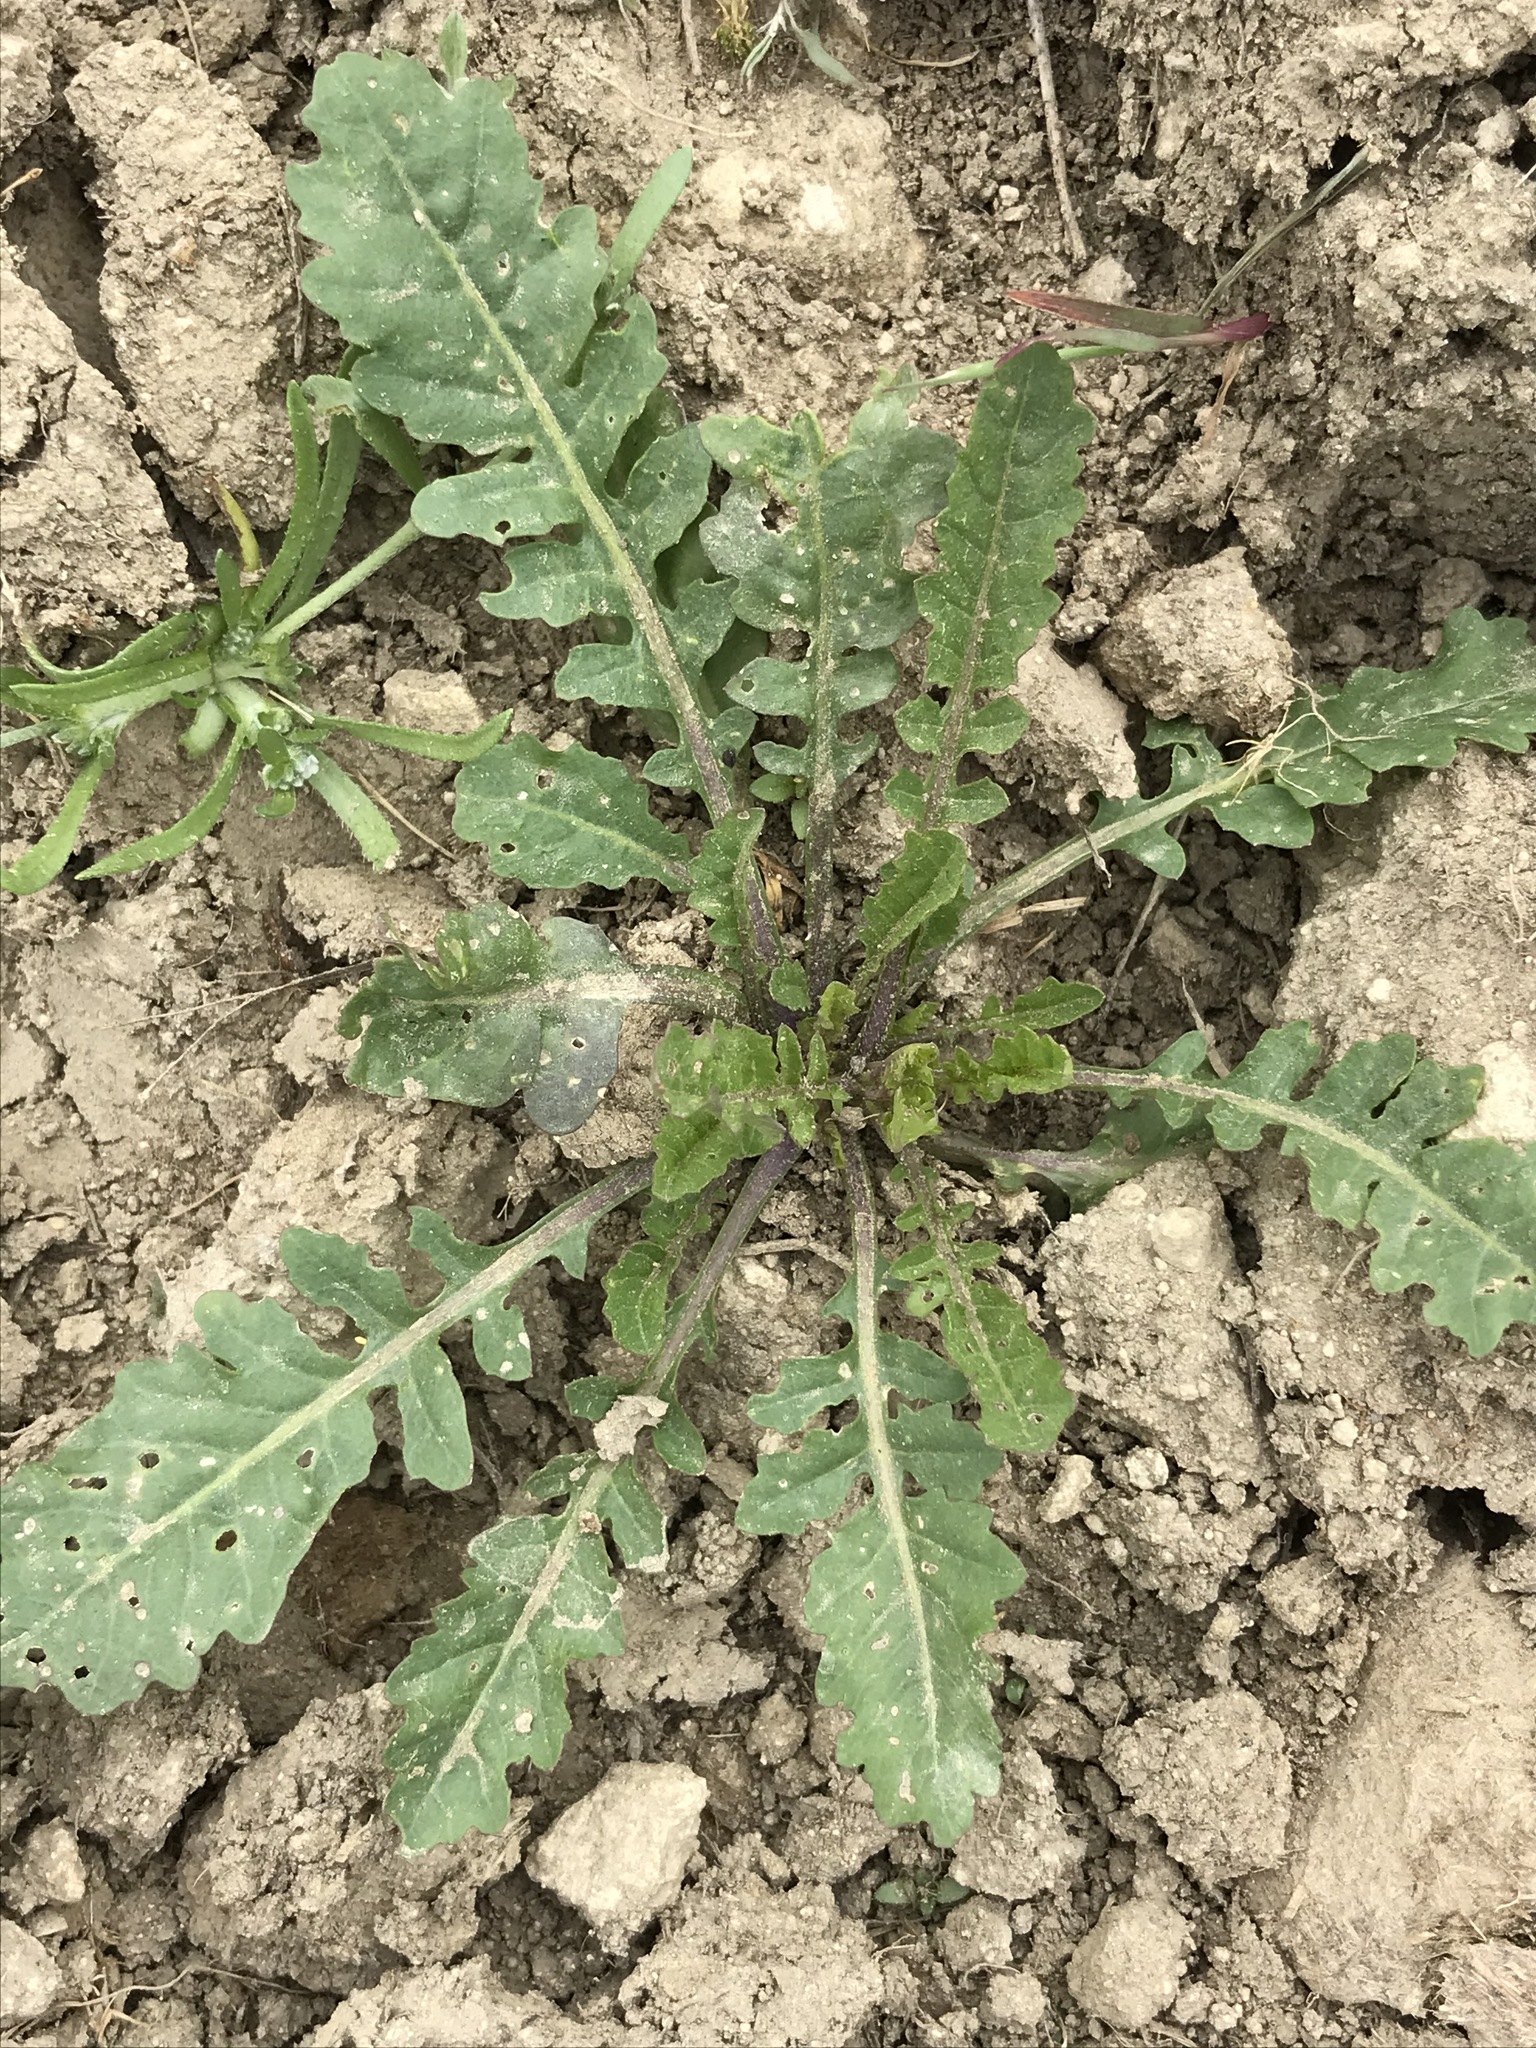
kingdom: Plantae
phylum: Tracheophyta
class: Magnoliopsida
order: Brassicales
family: Brassicaceae
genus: Rorippa
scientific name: Rorippa palustris
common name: Marsh yellow-cress
